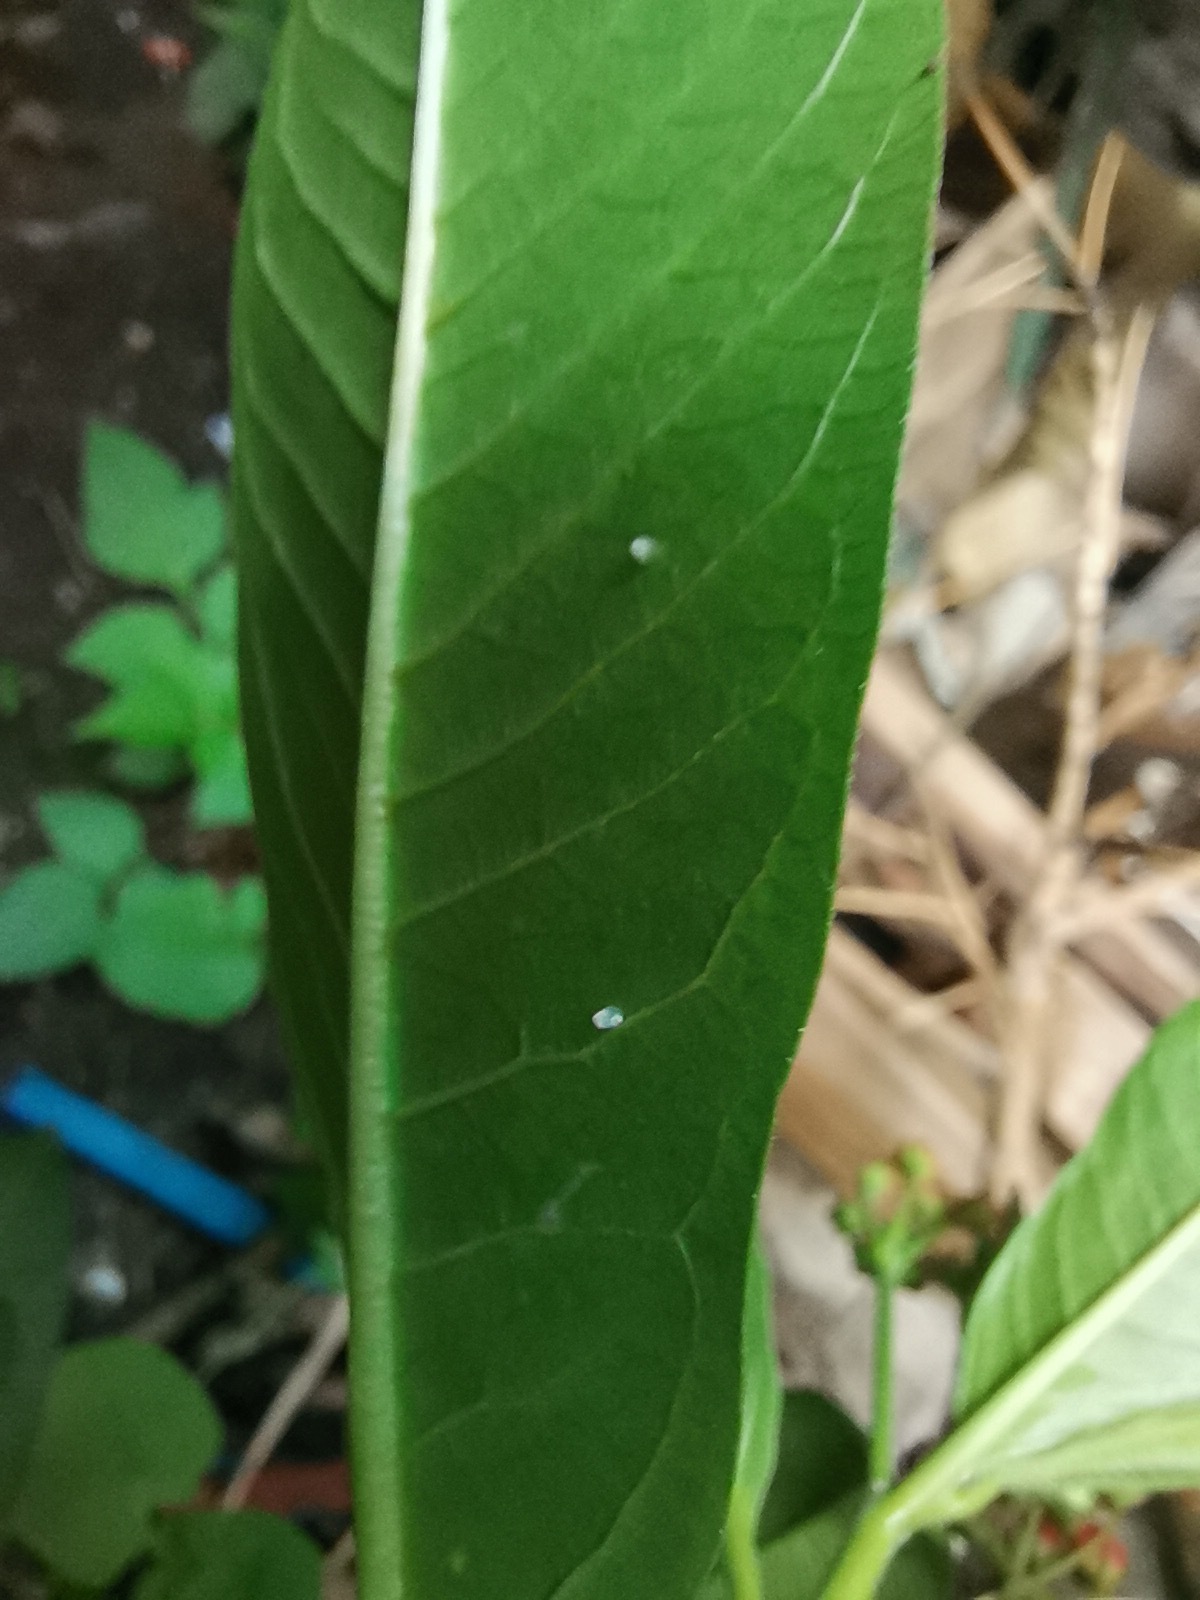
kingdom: Animalia
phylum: Arthropoda
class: Insecta
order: Lepidoptera
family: Nymphalidae
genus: Danaus
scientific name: Danaus plexippus
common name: Monarch
